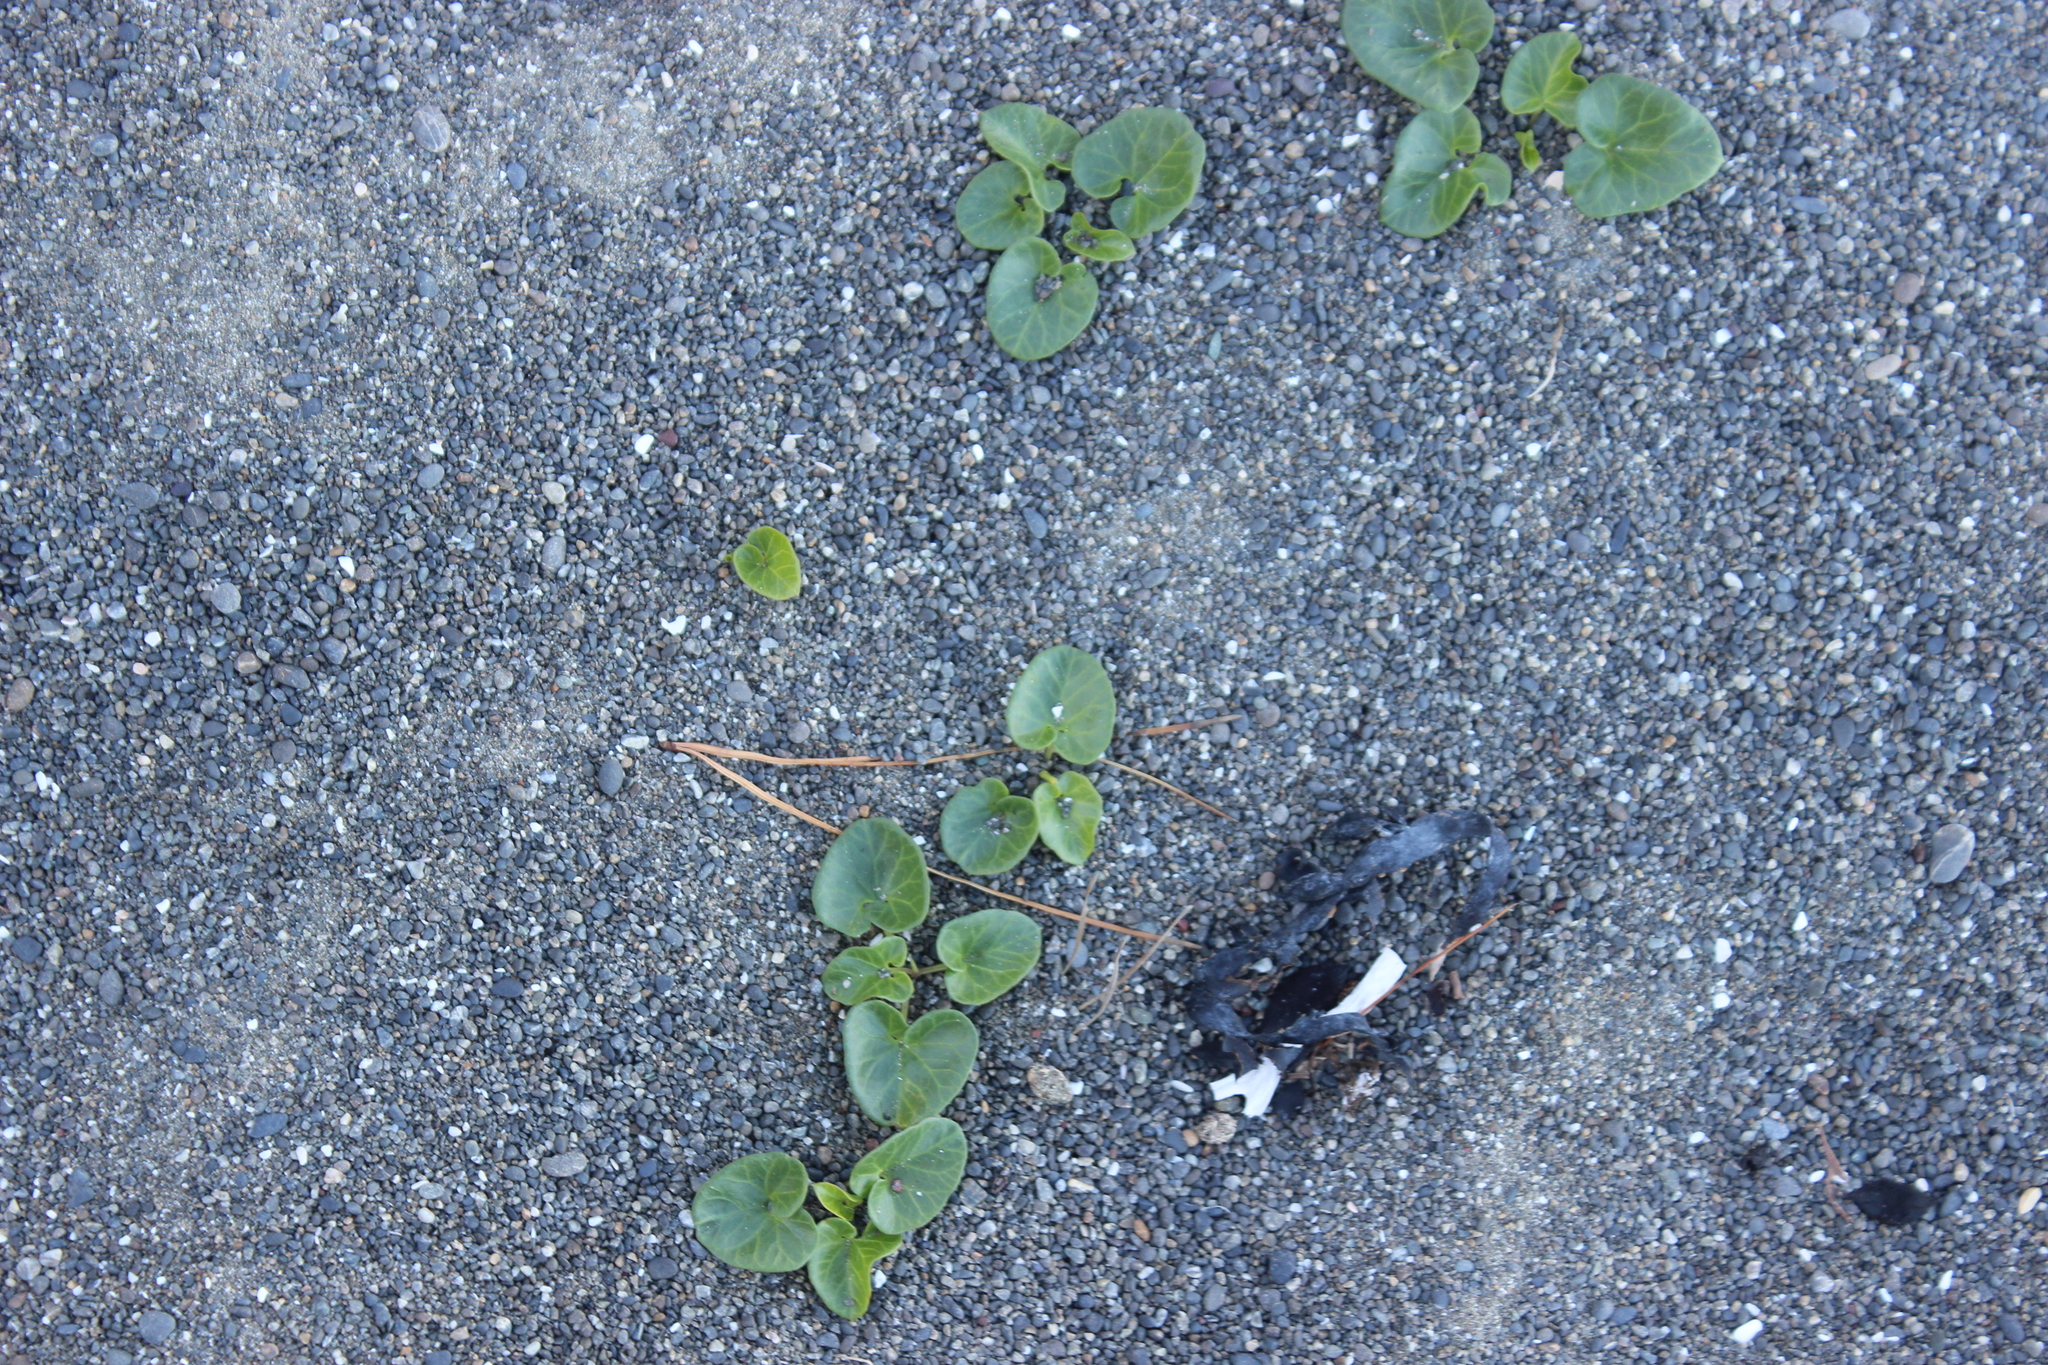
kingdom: Plantae
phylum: Tracheophyta
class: Magnoliopsida
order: Solanales
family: Convolvulaceae
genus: Calystegia
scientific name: Calystegia soldanella
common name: Sea bindweed
